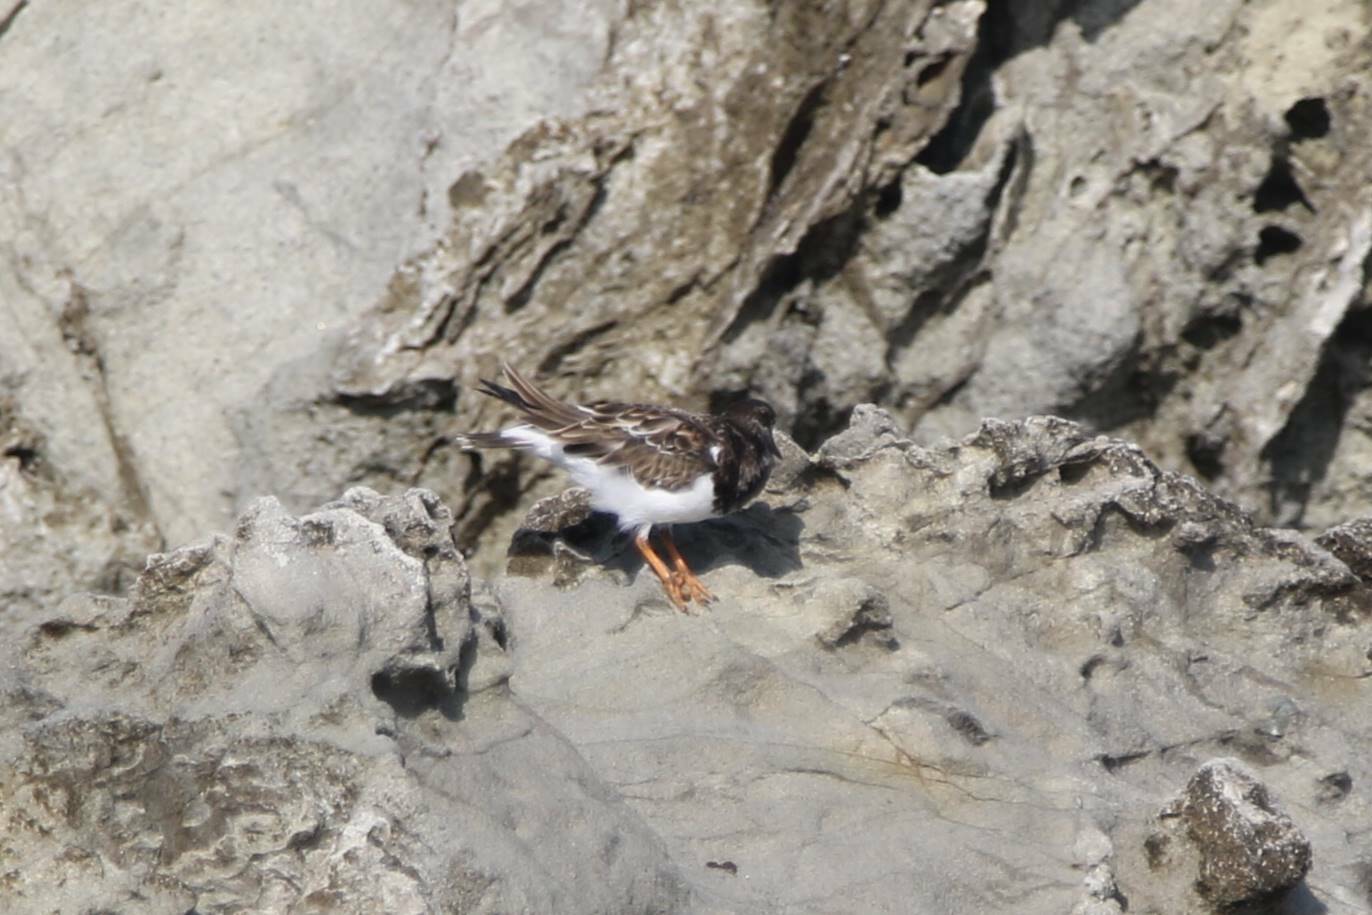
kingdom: Animalia
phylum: Chordata
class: Aves
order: Charadriiformes
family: Scolopacidae
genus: Arenaria
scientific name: Arenaria interpres
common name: Ruddy turnstone
